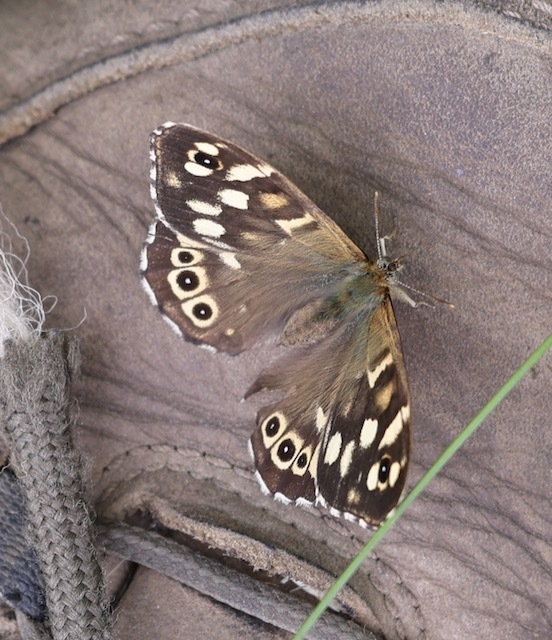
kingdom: Animalia
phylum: Arthropoda
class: Insecta
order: Lepidoptera
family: Nymphalidae
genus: Pararge
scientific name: Pararge aegeria
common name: Speckled wood
